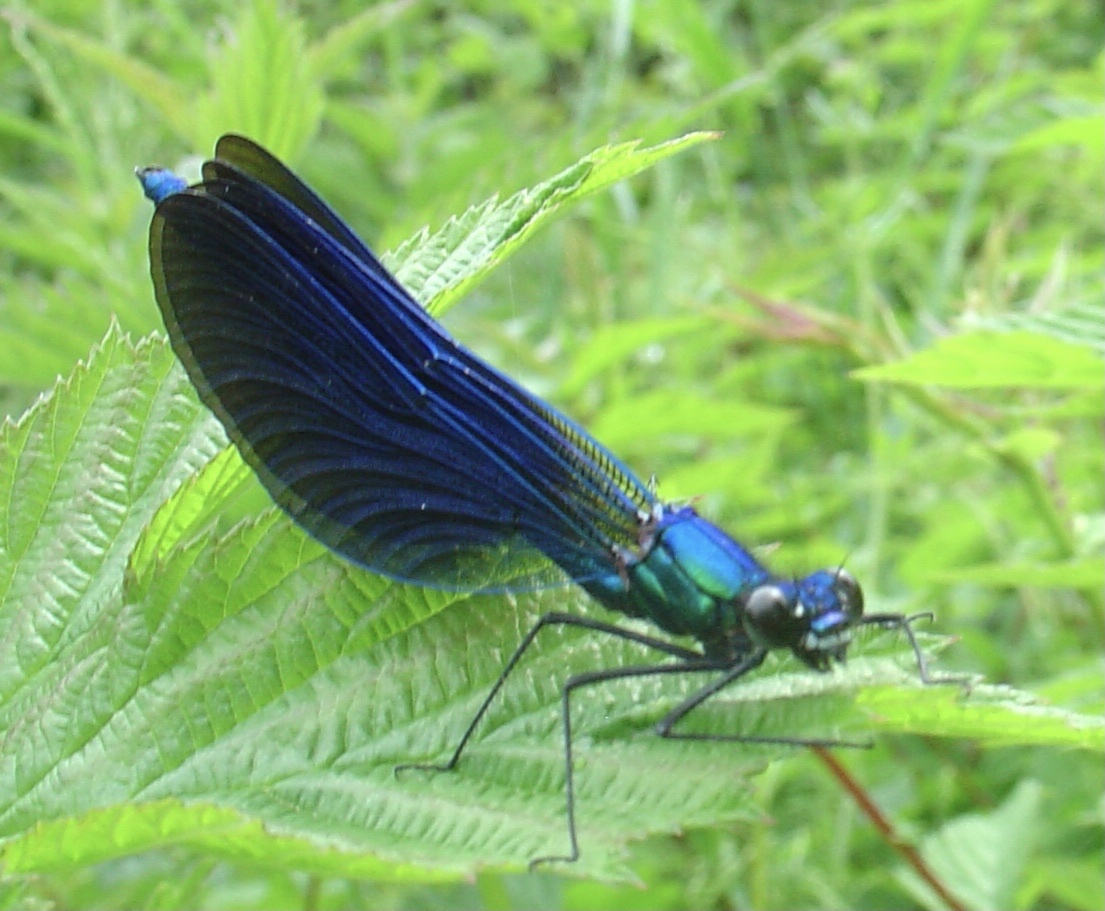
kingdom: Animalia
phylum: Arthropoda
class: Insecta
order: Odonata
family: Calopterygidae
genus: Calopteryx
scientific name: Calopteryx virgo
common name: Beautiful demoiselle
